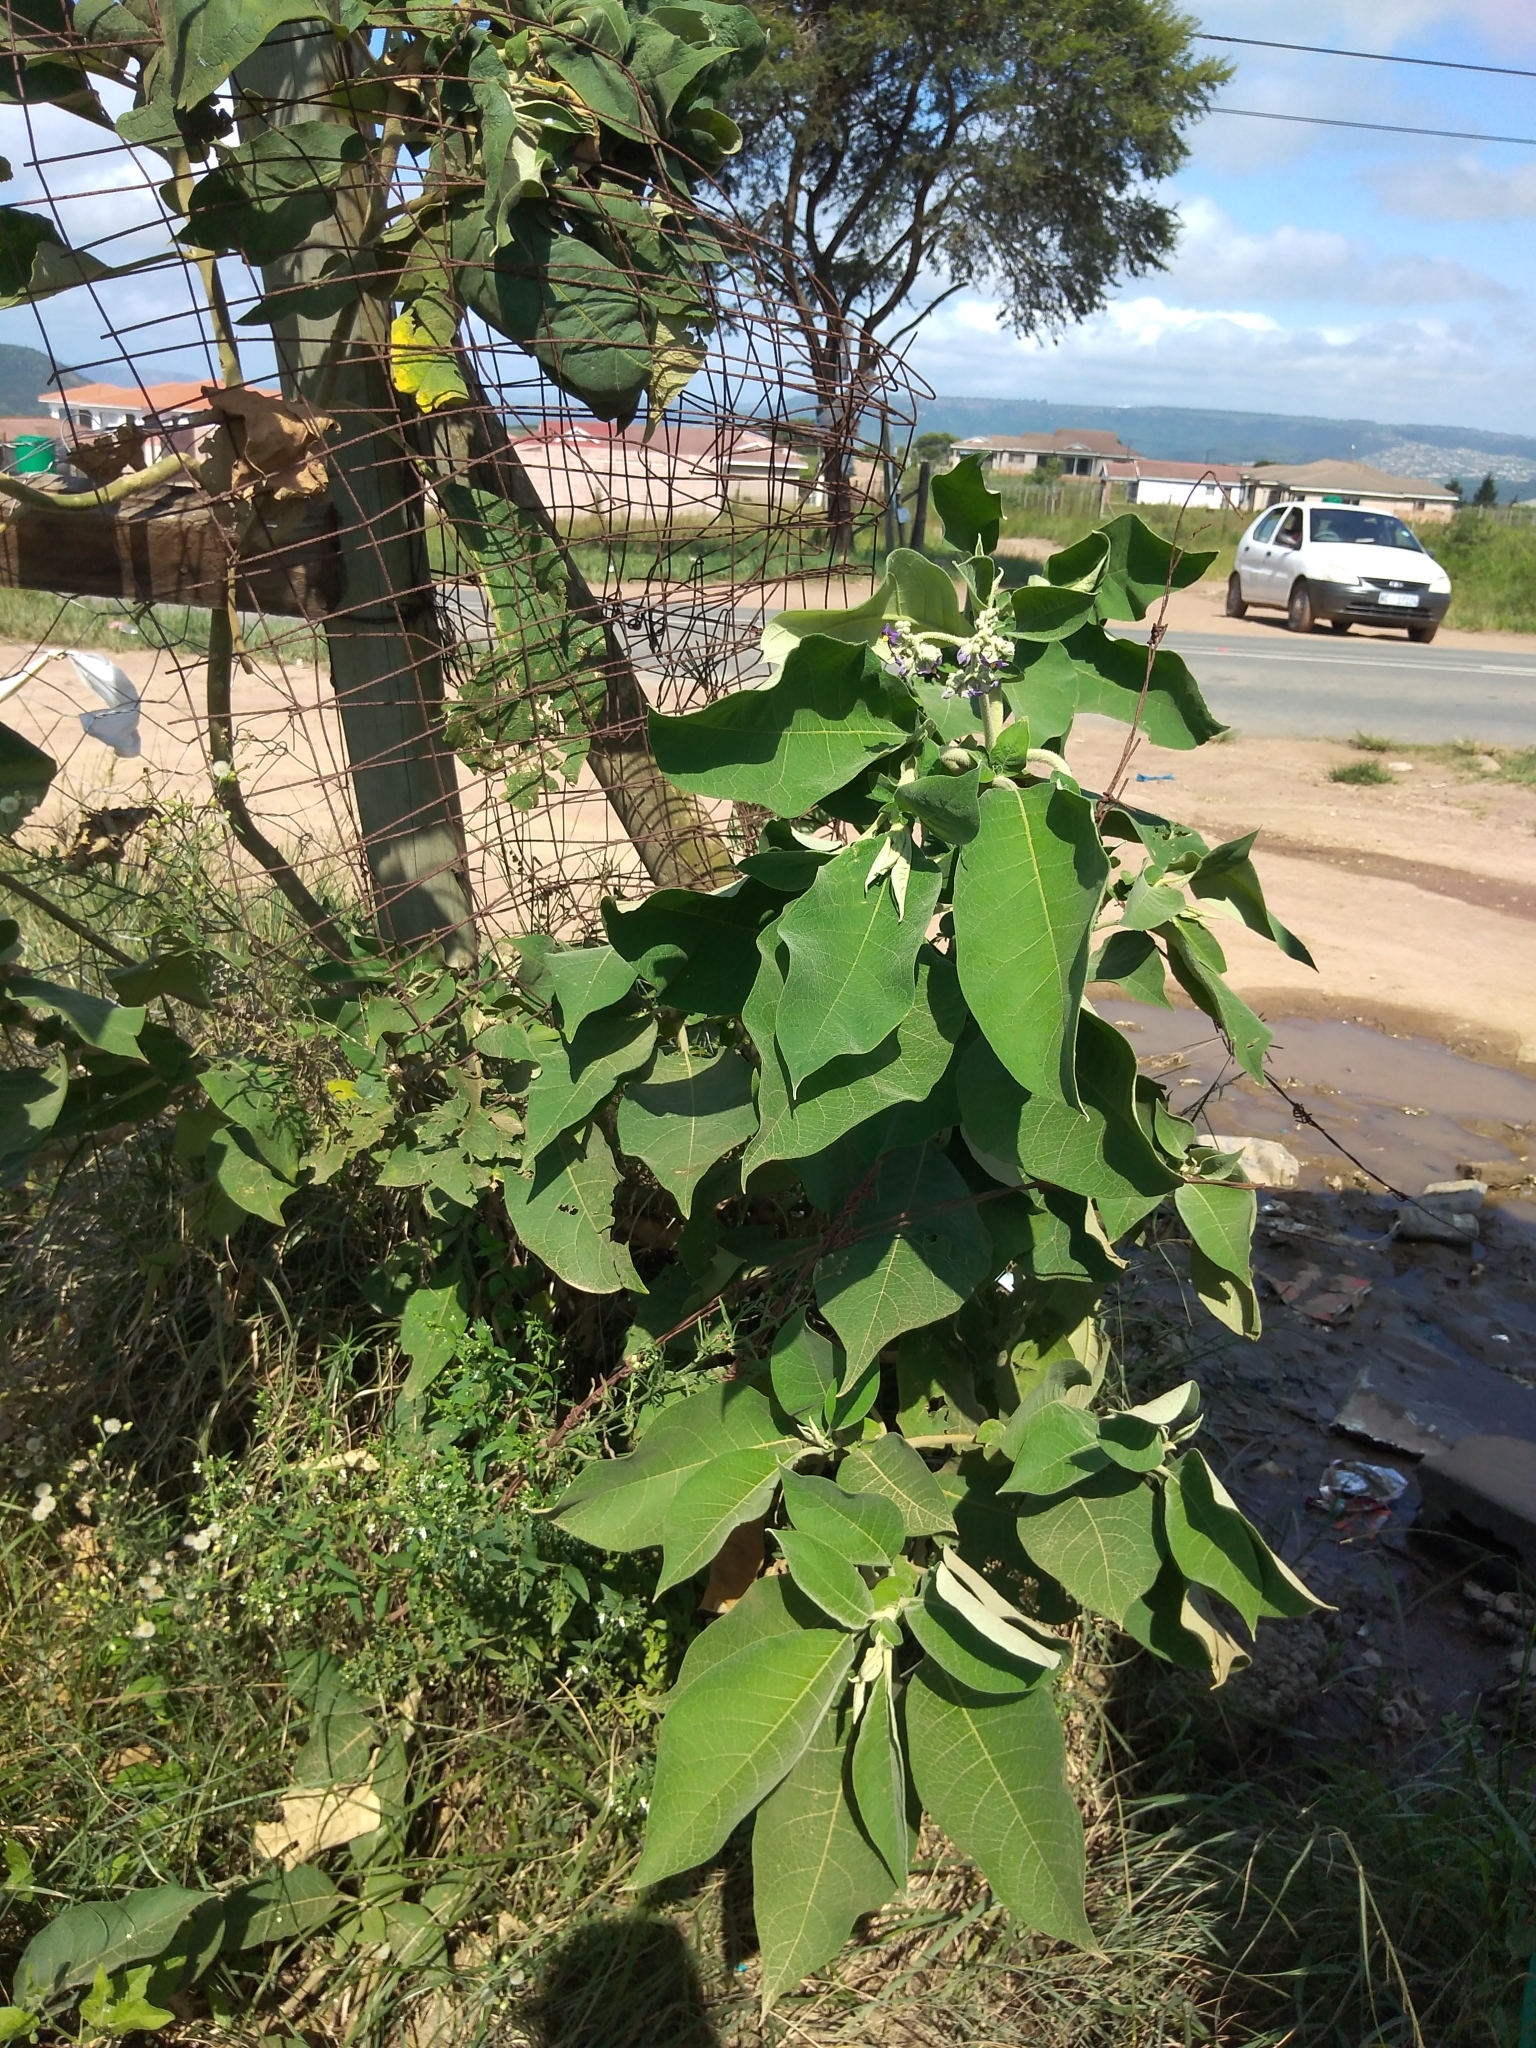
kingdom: Plantae
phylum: Tracheophyta
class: Magnoliopsida
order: Solanales
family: Solanaceae
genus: Solanum
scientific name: Solanum mauritianum
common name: Earleaf nightshade
